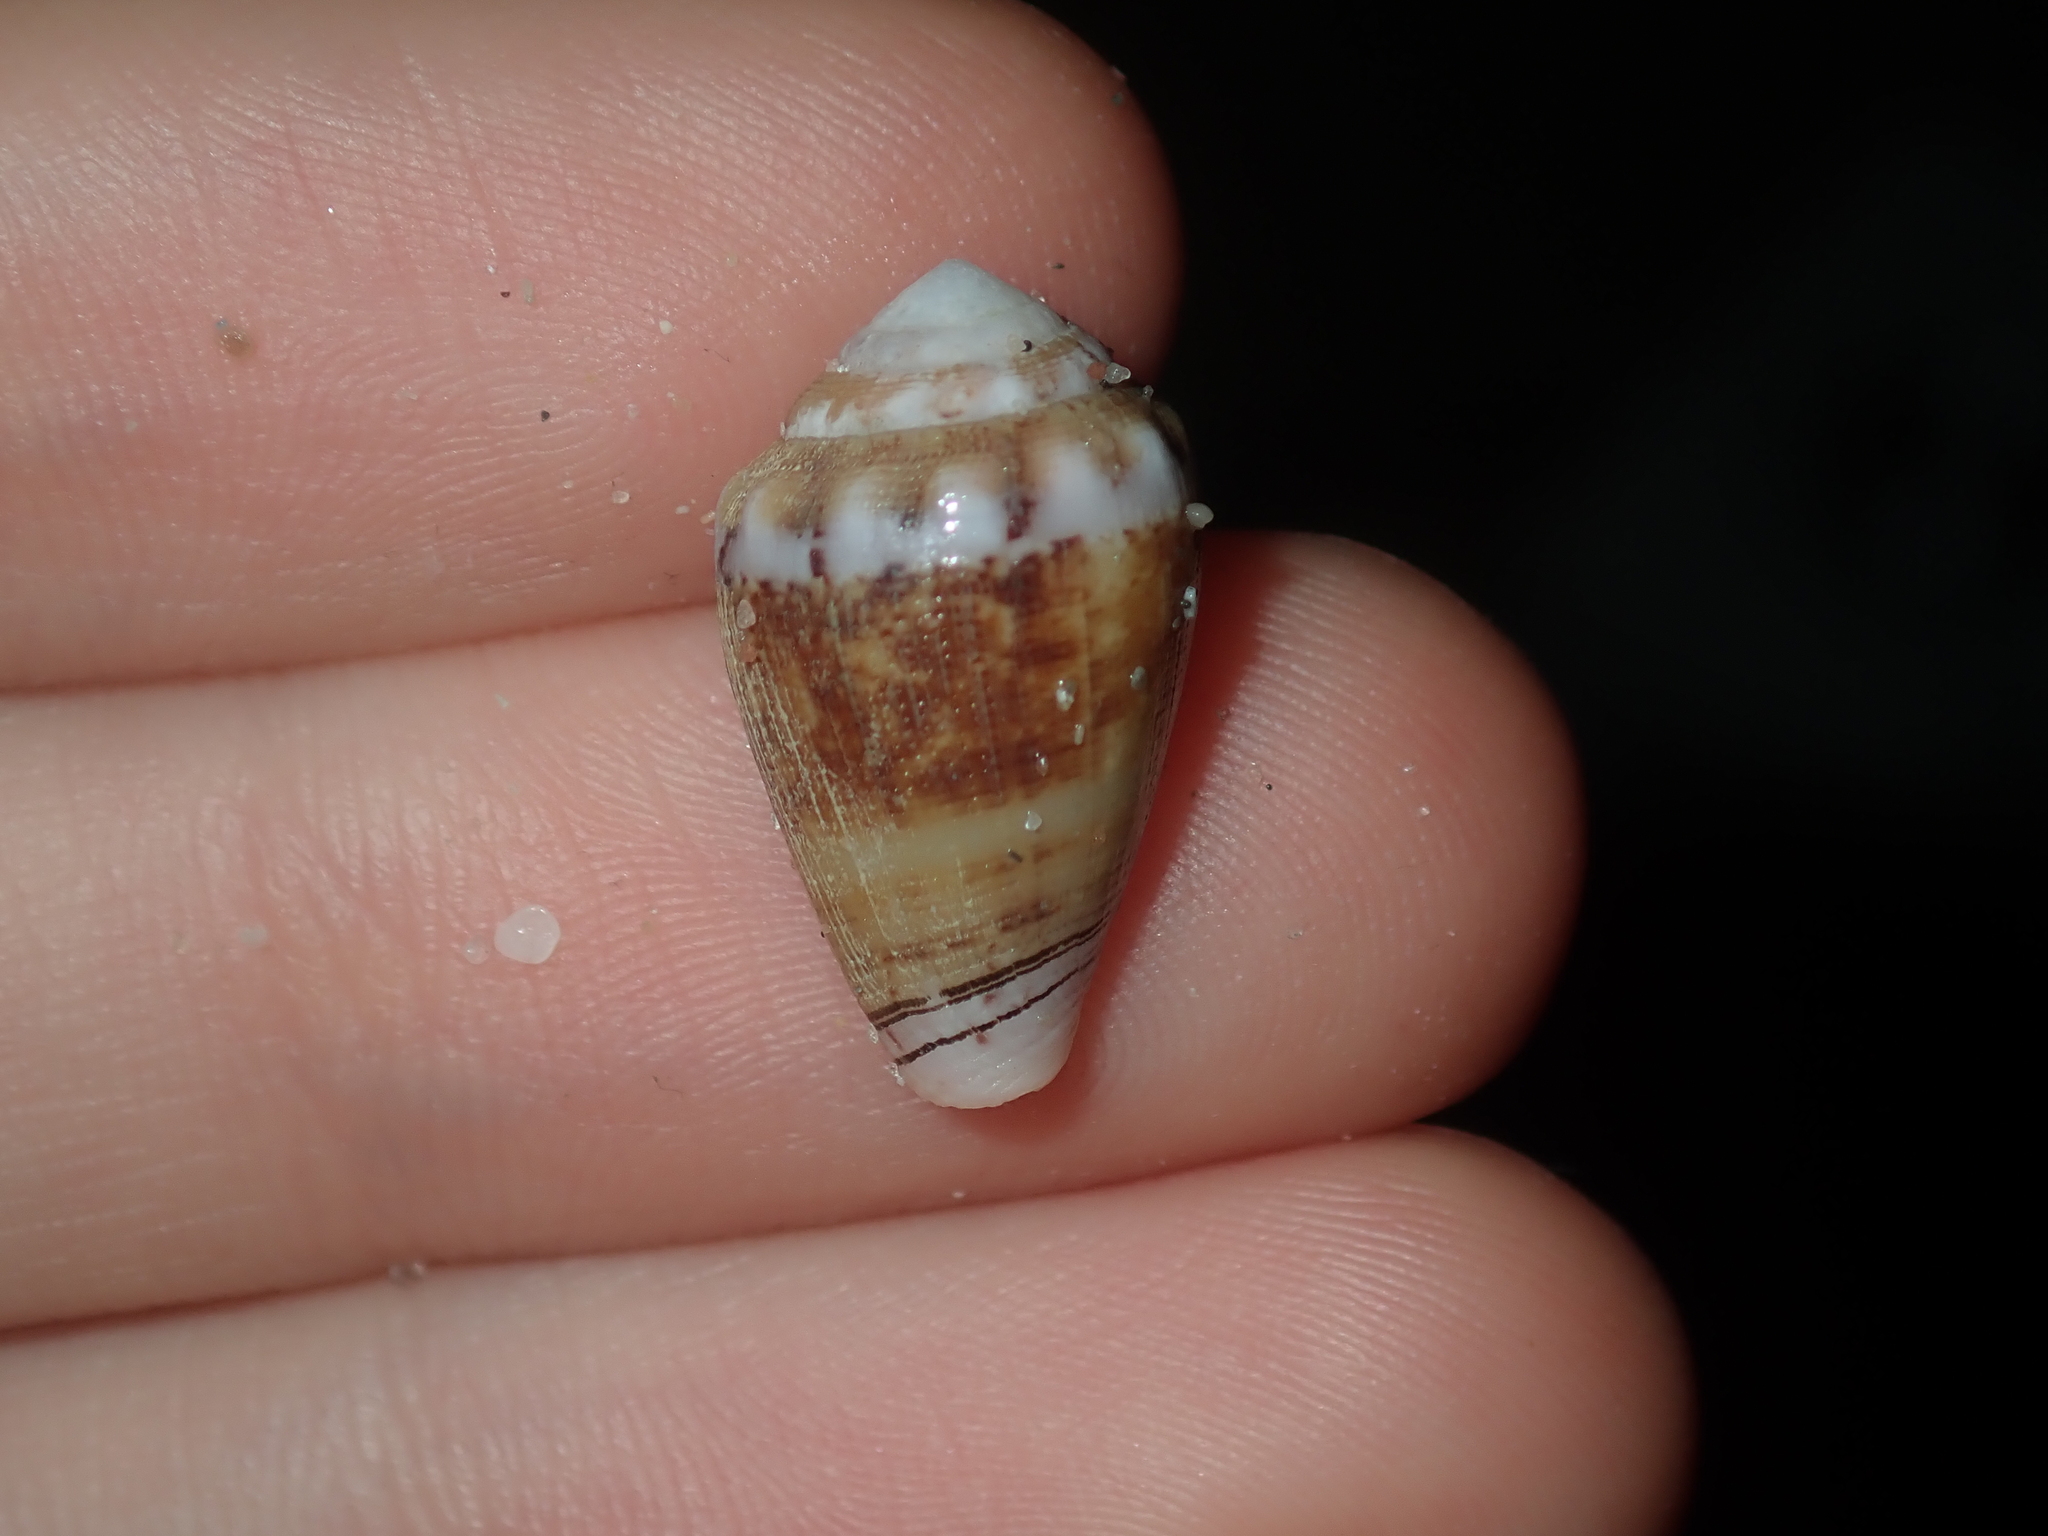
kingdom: Animalia
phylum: Mollusca
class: Gastropoda
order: Neogastropoda
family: Conidae
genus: Conus
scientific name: Conus dorreensis
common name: Pontificial cone
